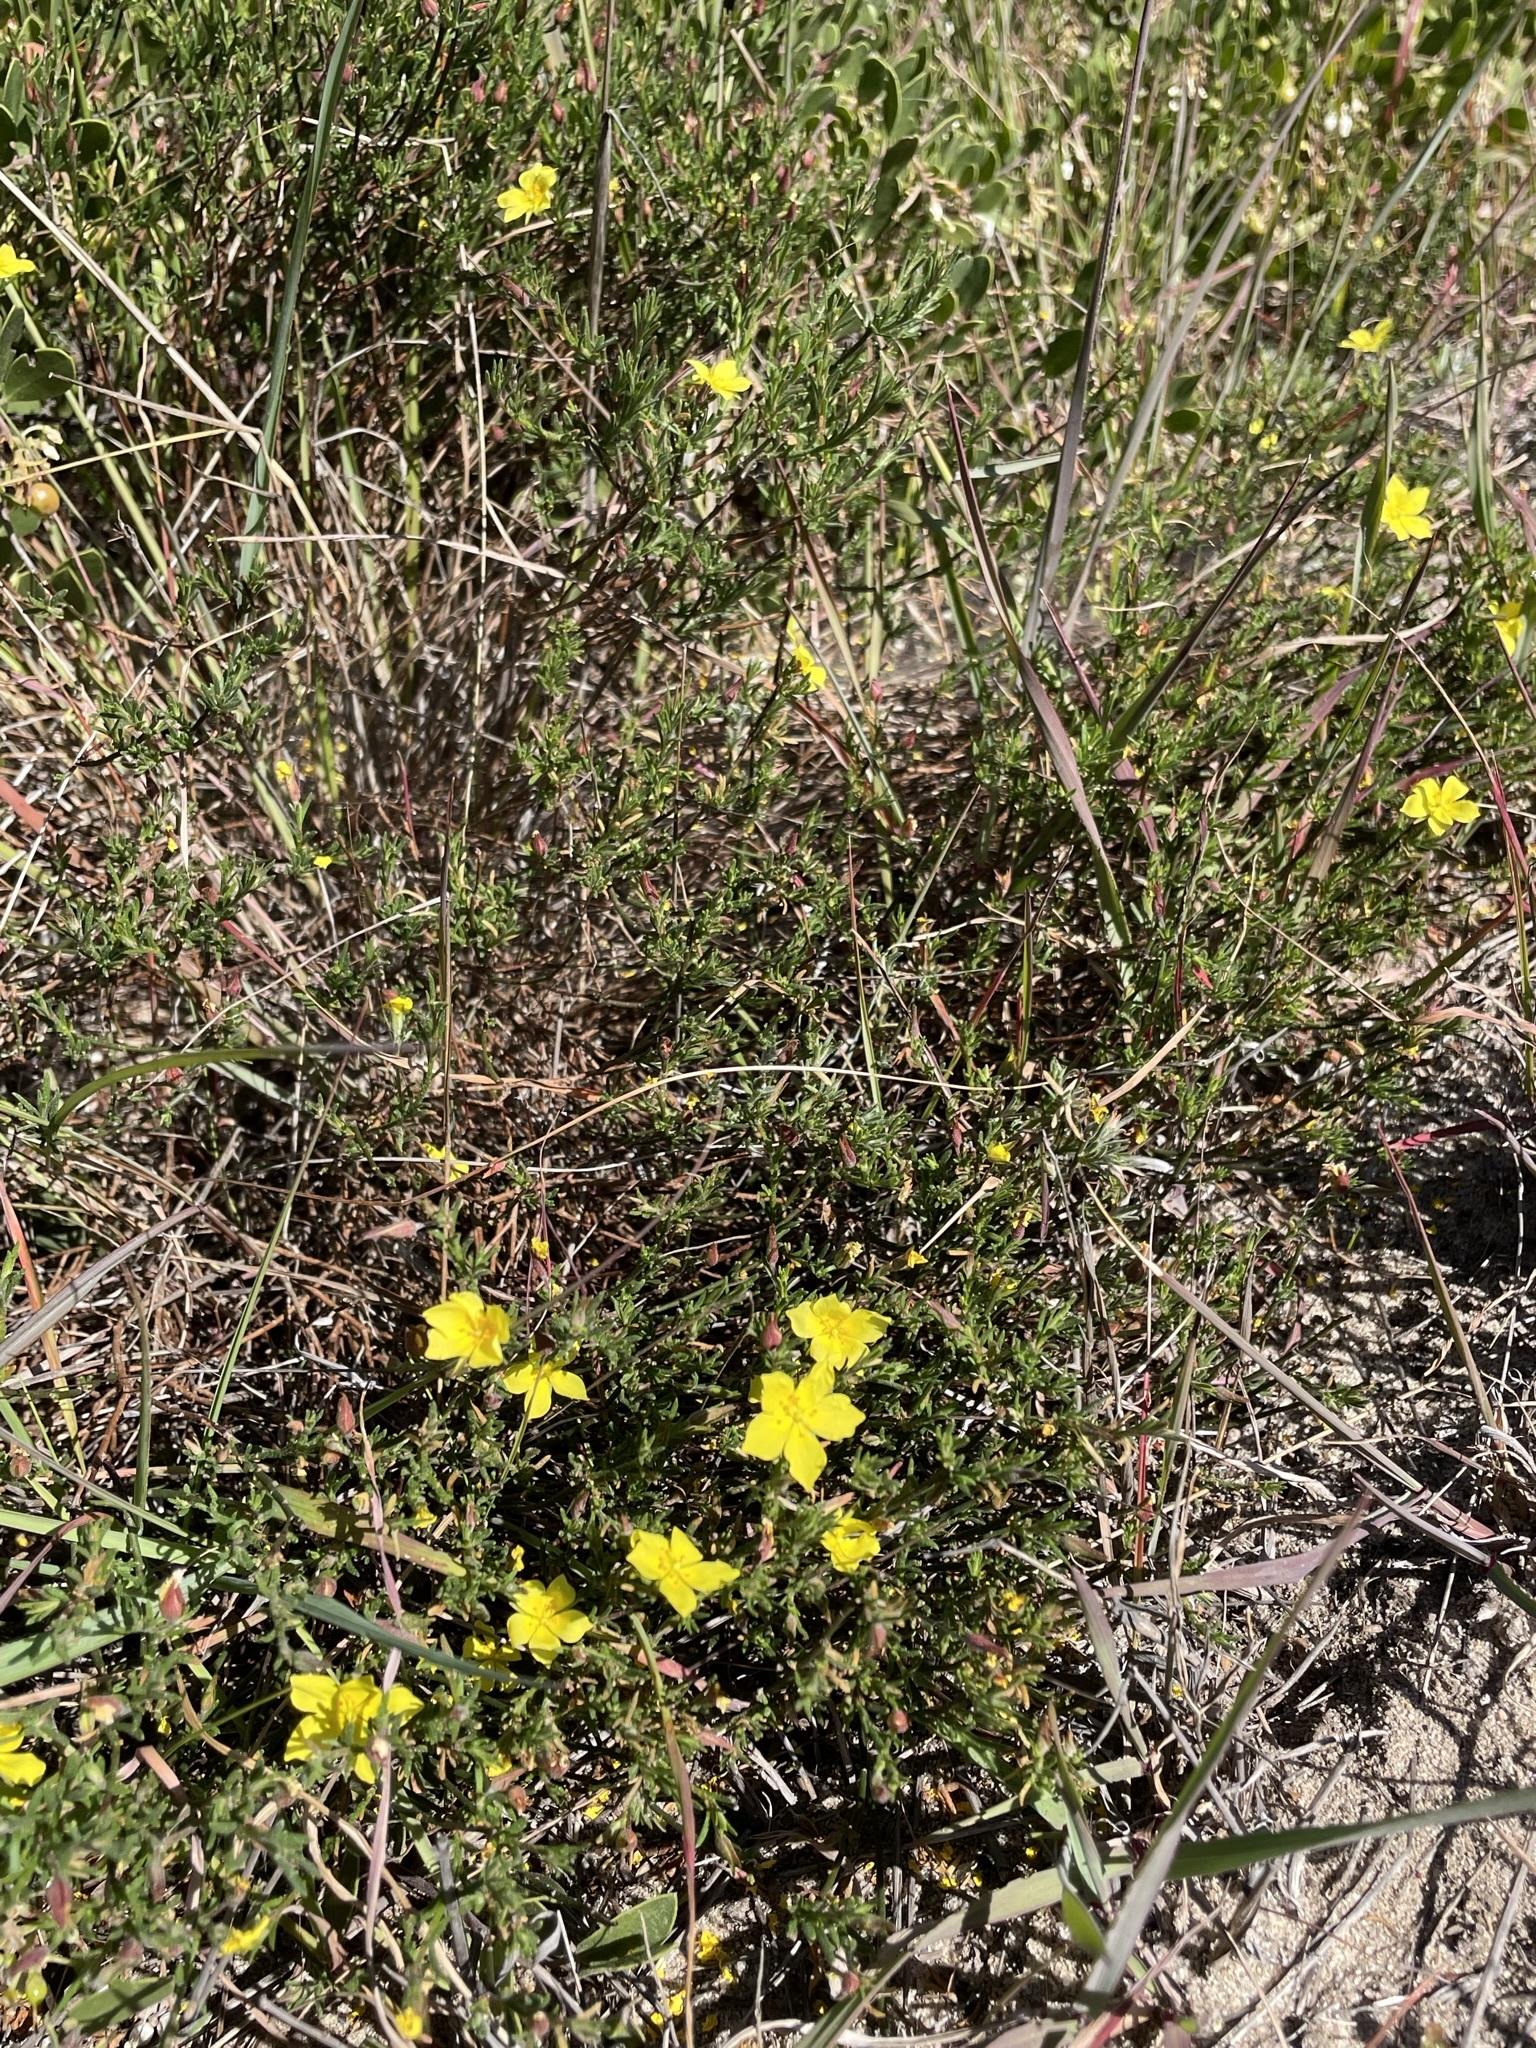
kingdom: Plantae
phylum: Tracheophyta
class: Magnoliopsida
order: Malvales
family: Cistaceae
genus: Crocanthemum
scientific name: Crocanthemum scoparium
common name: Broom-rose
